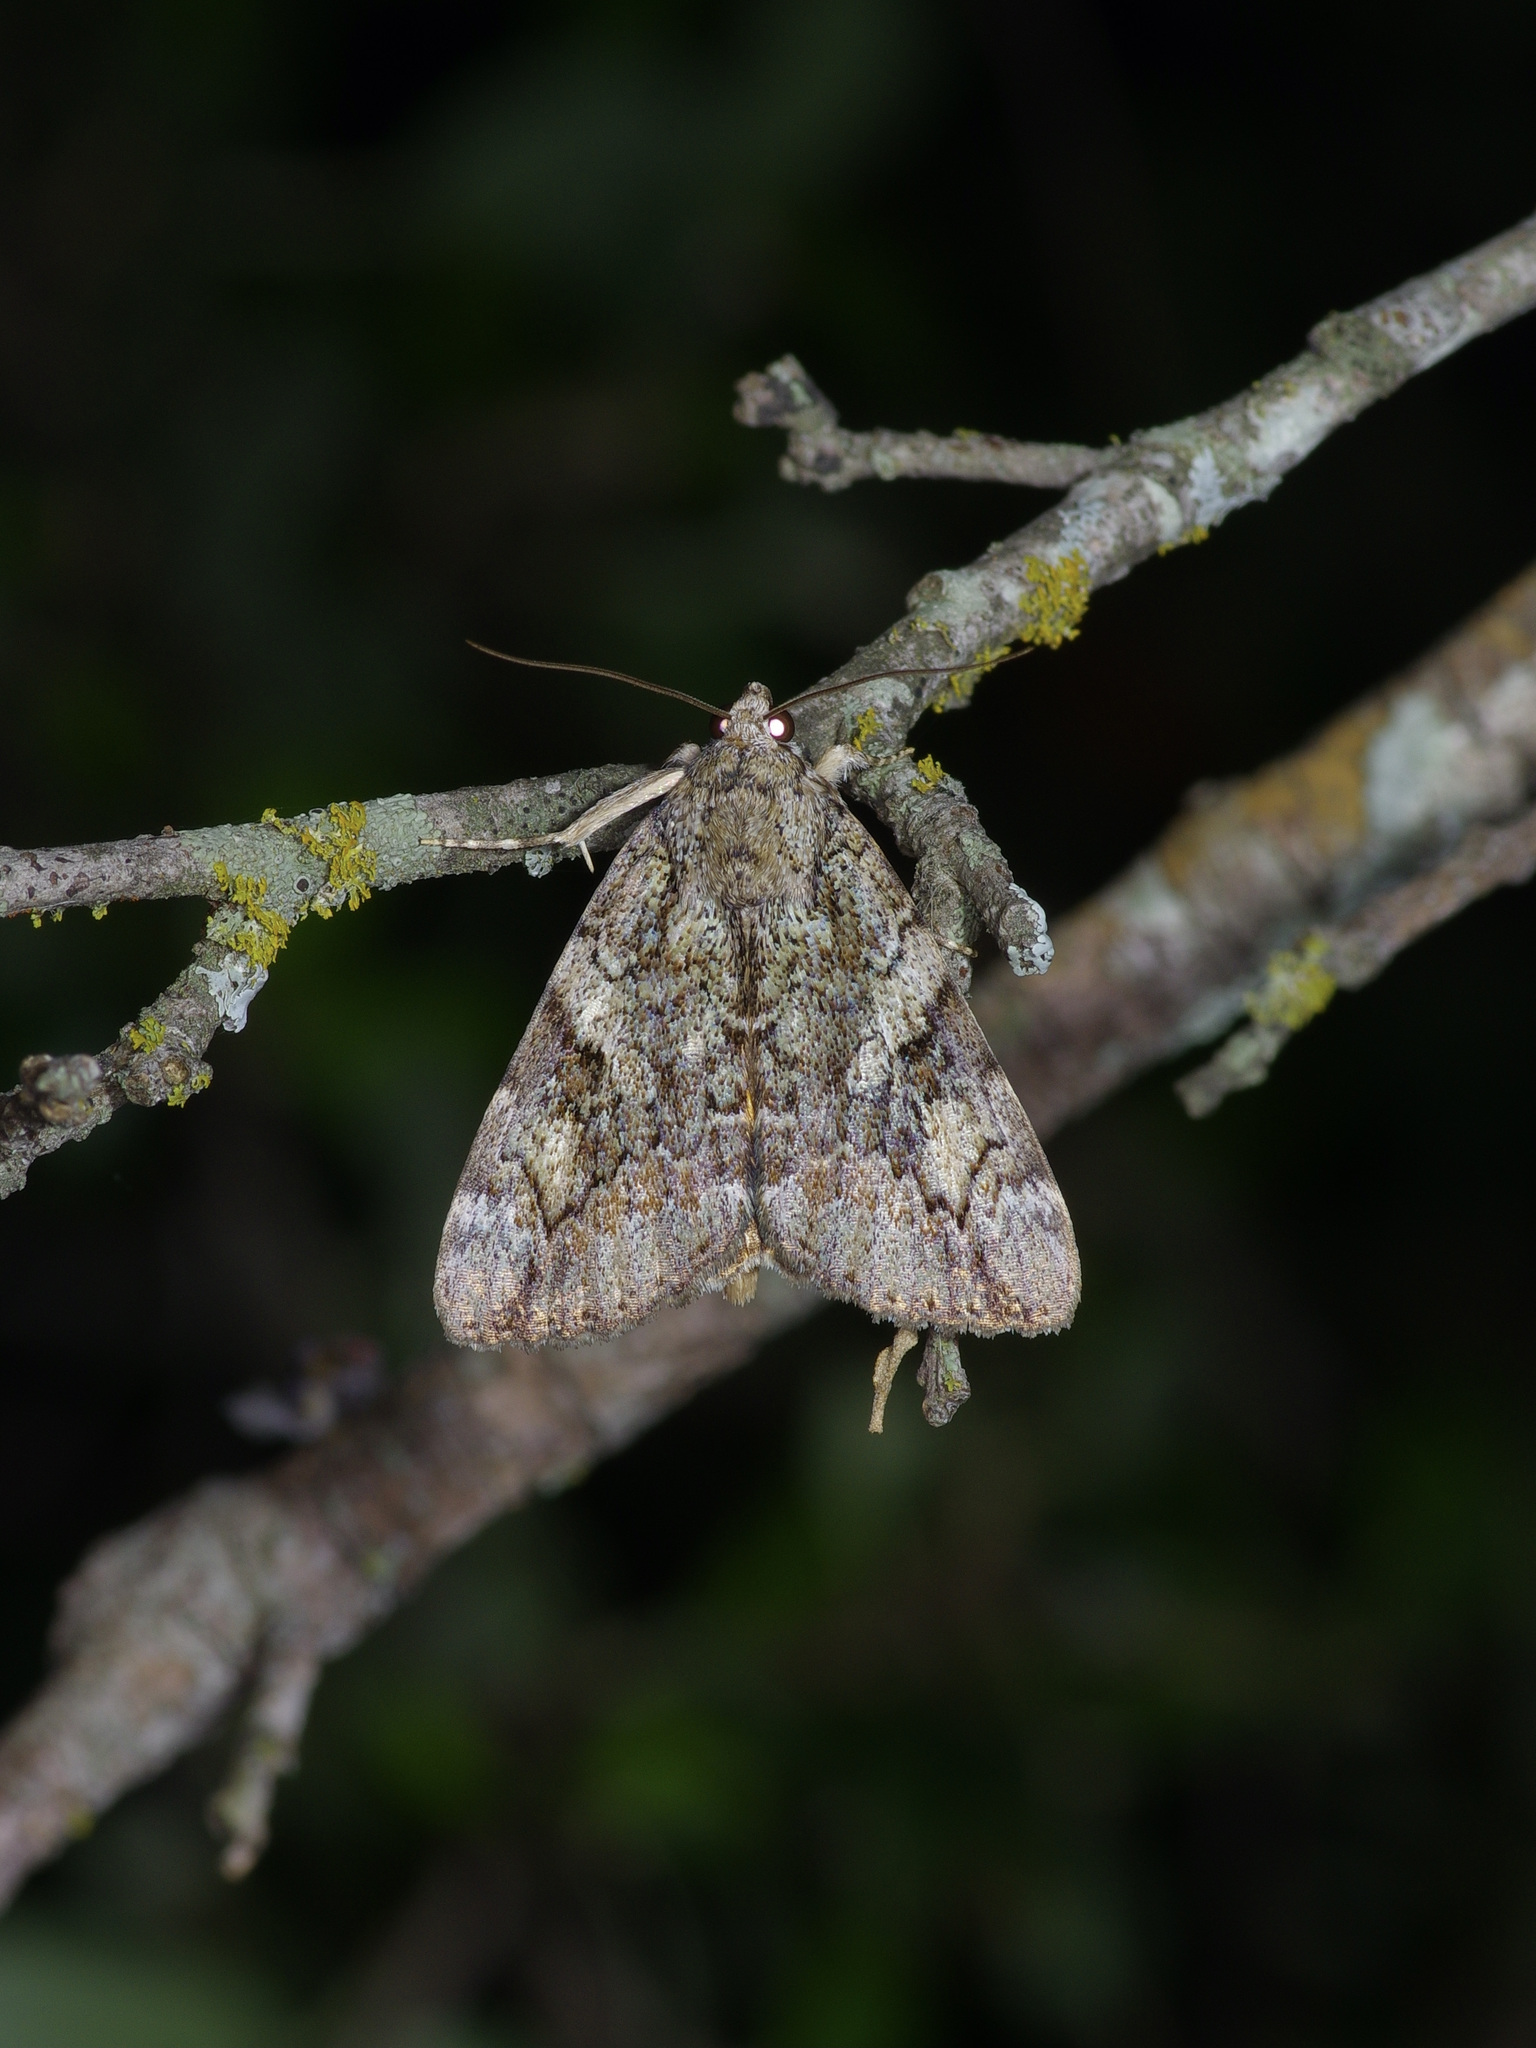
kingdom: Animalia
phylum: Arthropoda
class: Insecta
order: Lepidoptera
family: Erebidae
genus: Catocala
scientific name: Catocala micronympha
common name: Little nymph underwing
